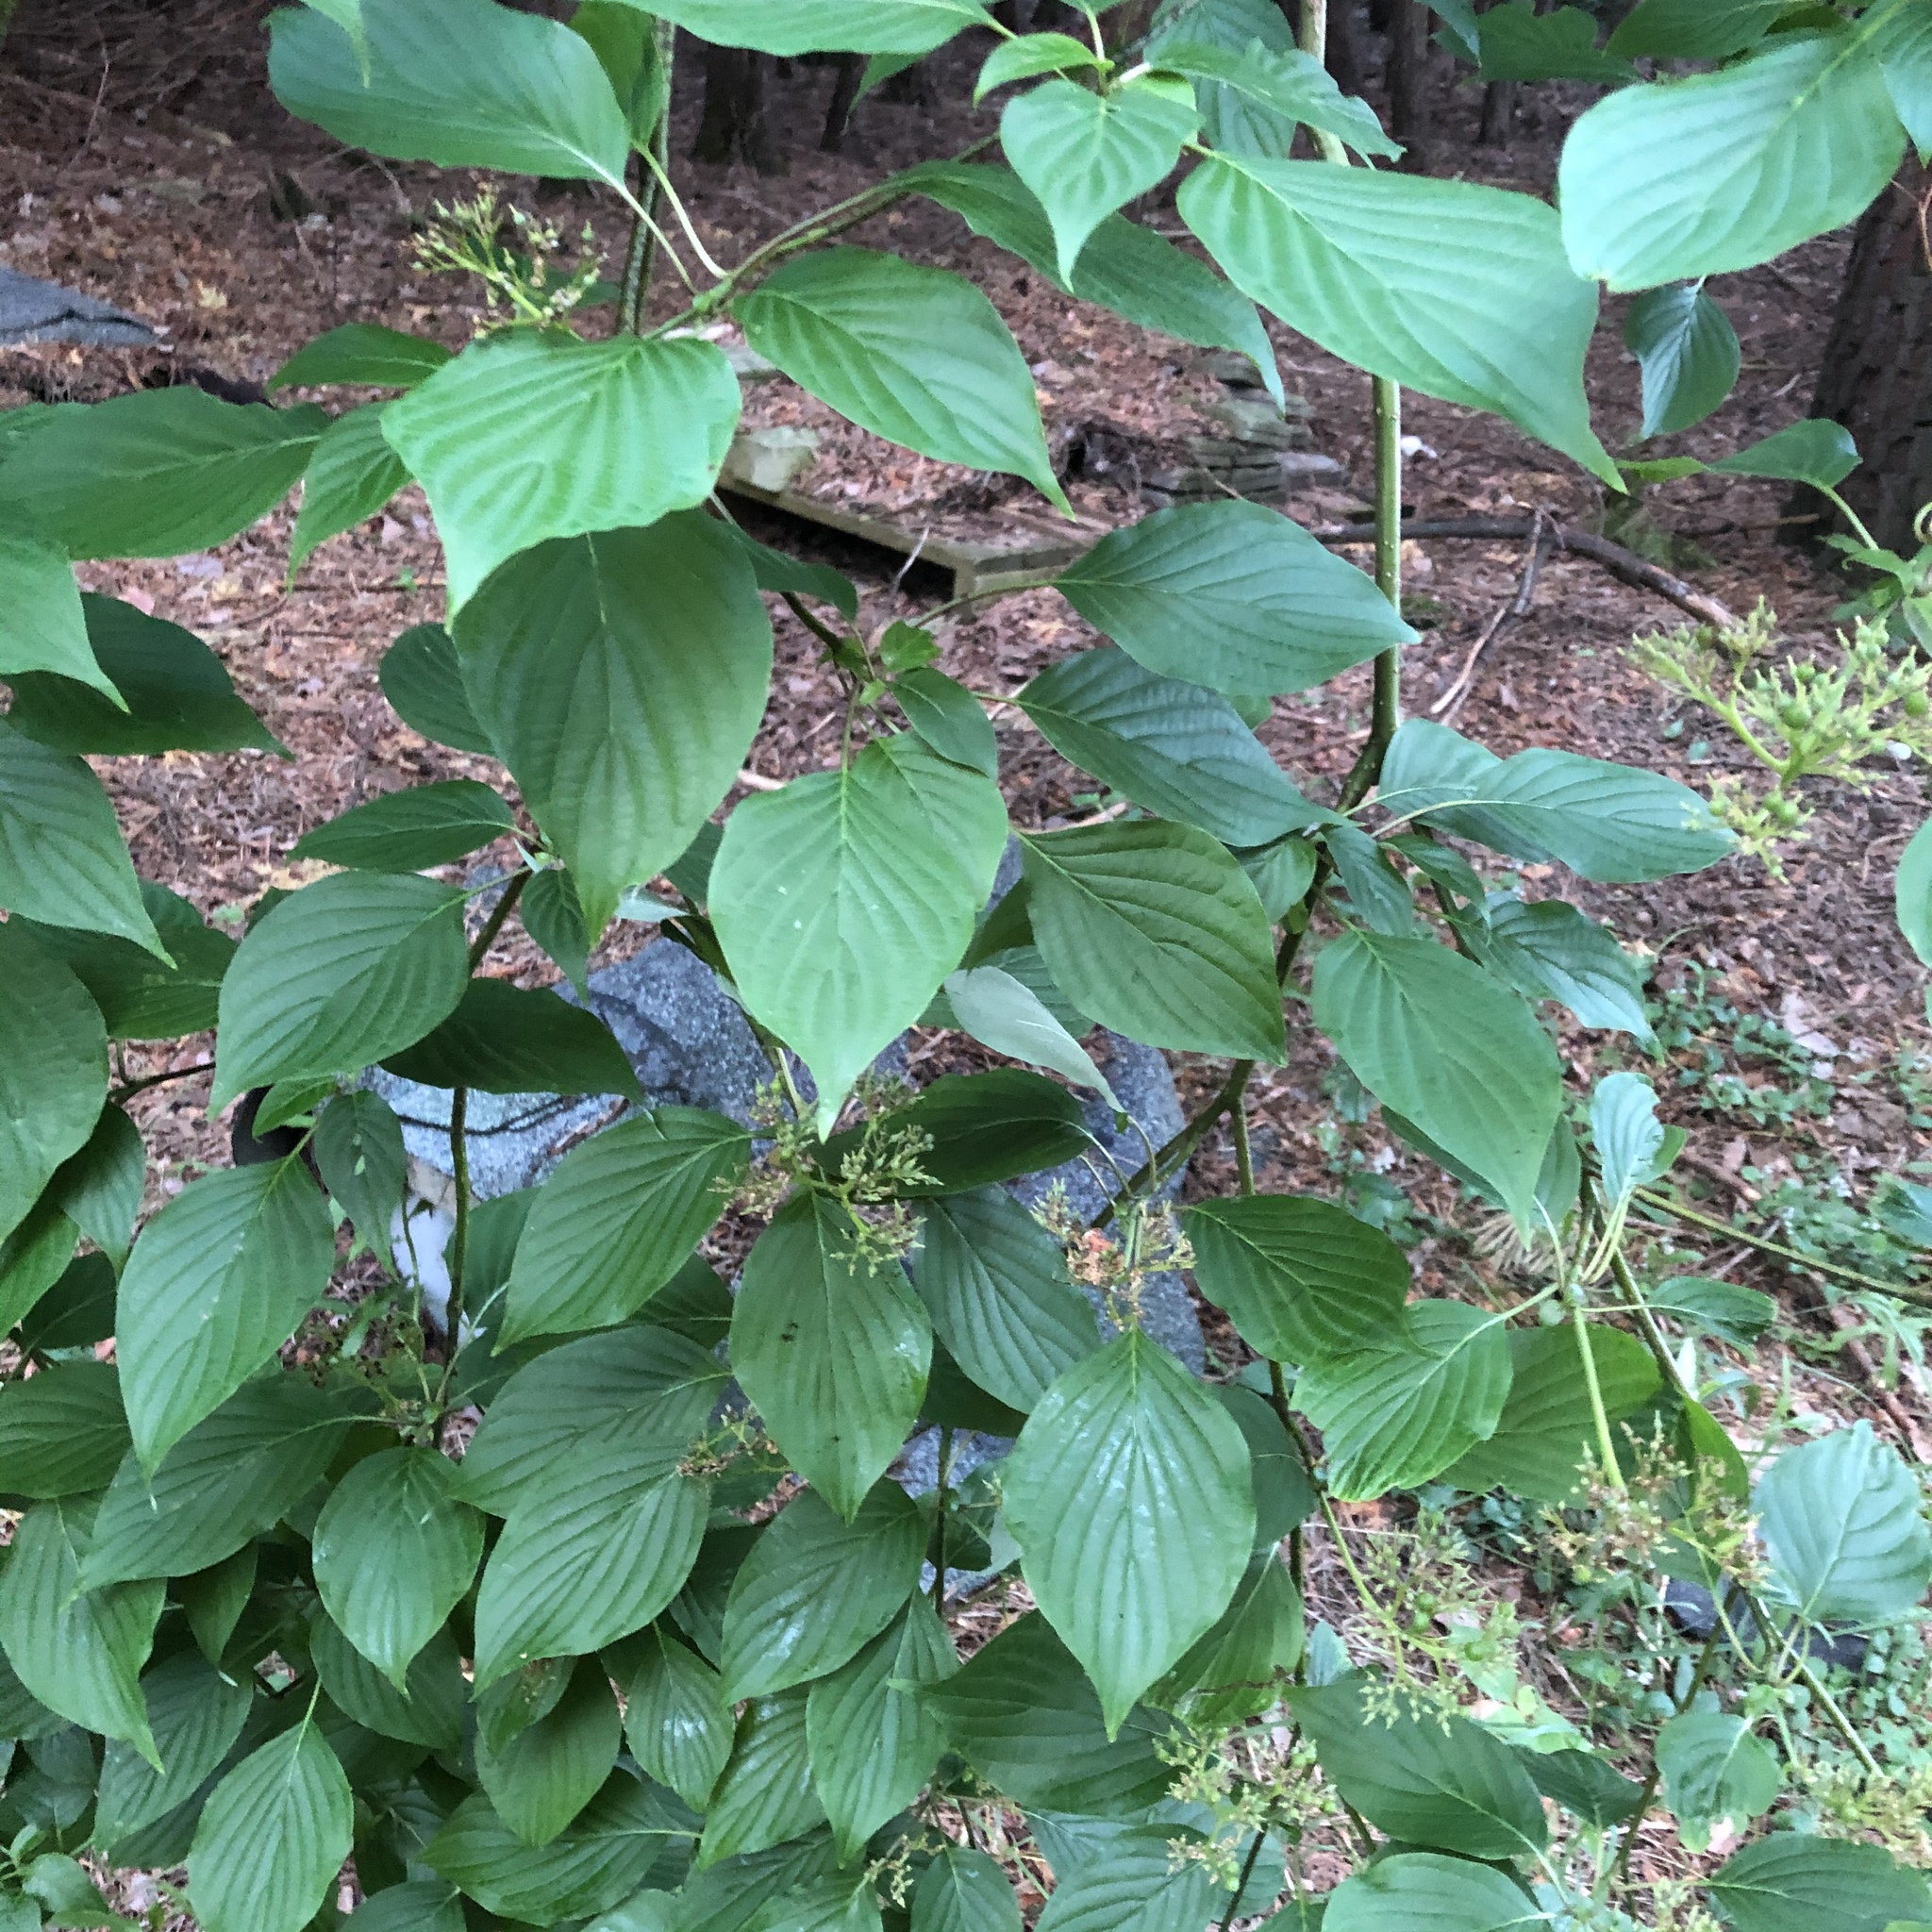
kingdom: Plantae
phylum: Tracheophyta
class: Magnoliopsida
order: Cornales
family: Cornaceae
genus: Cornus
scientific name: Cornus alternifolia
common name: Pagoda dogwood
